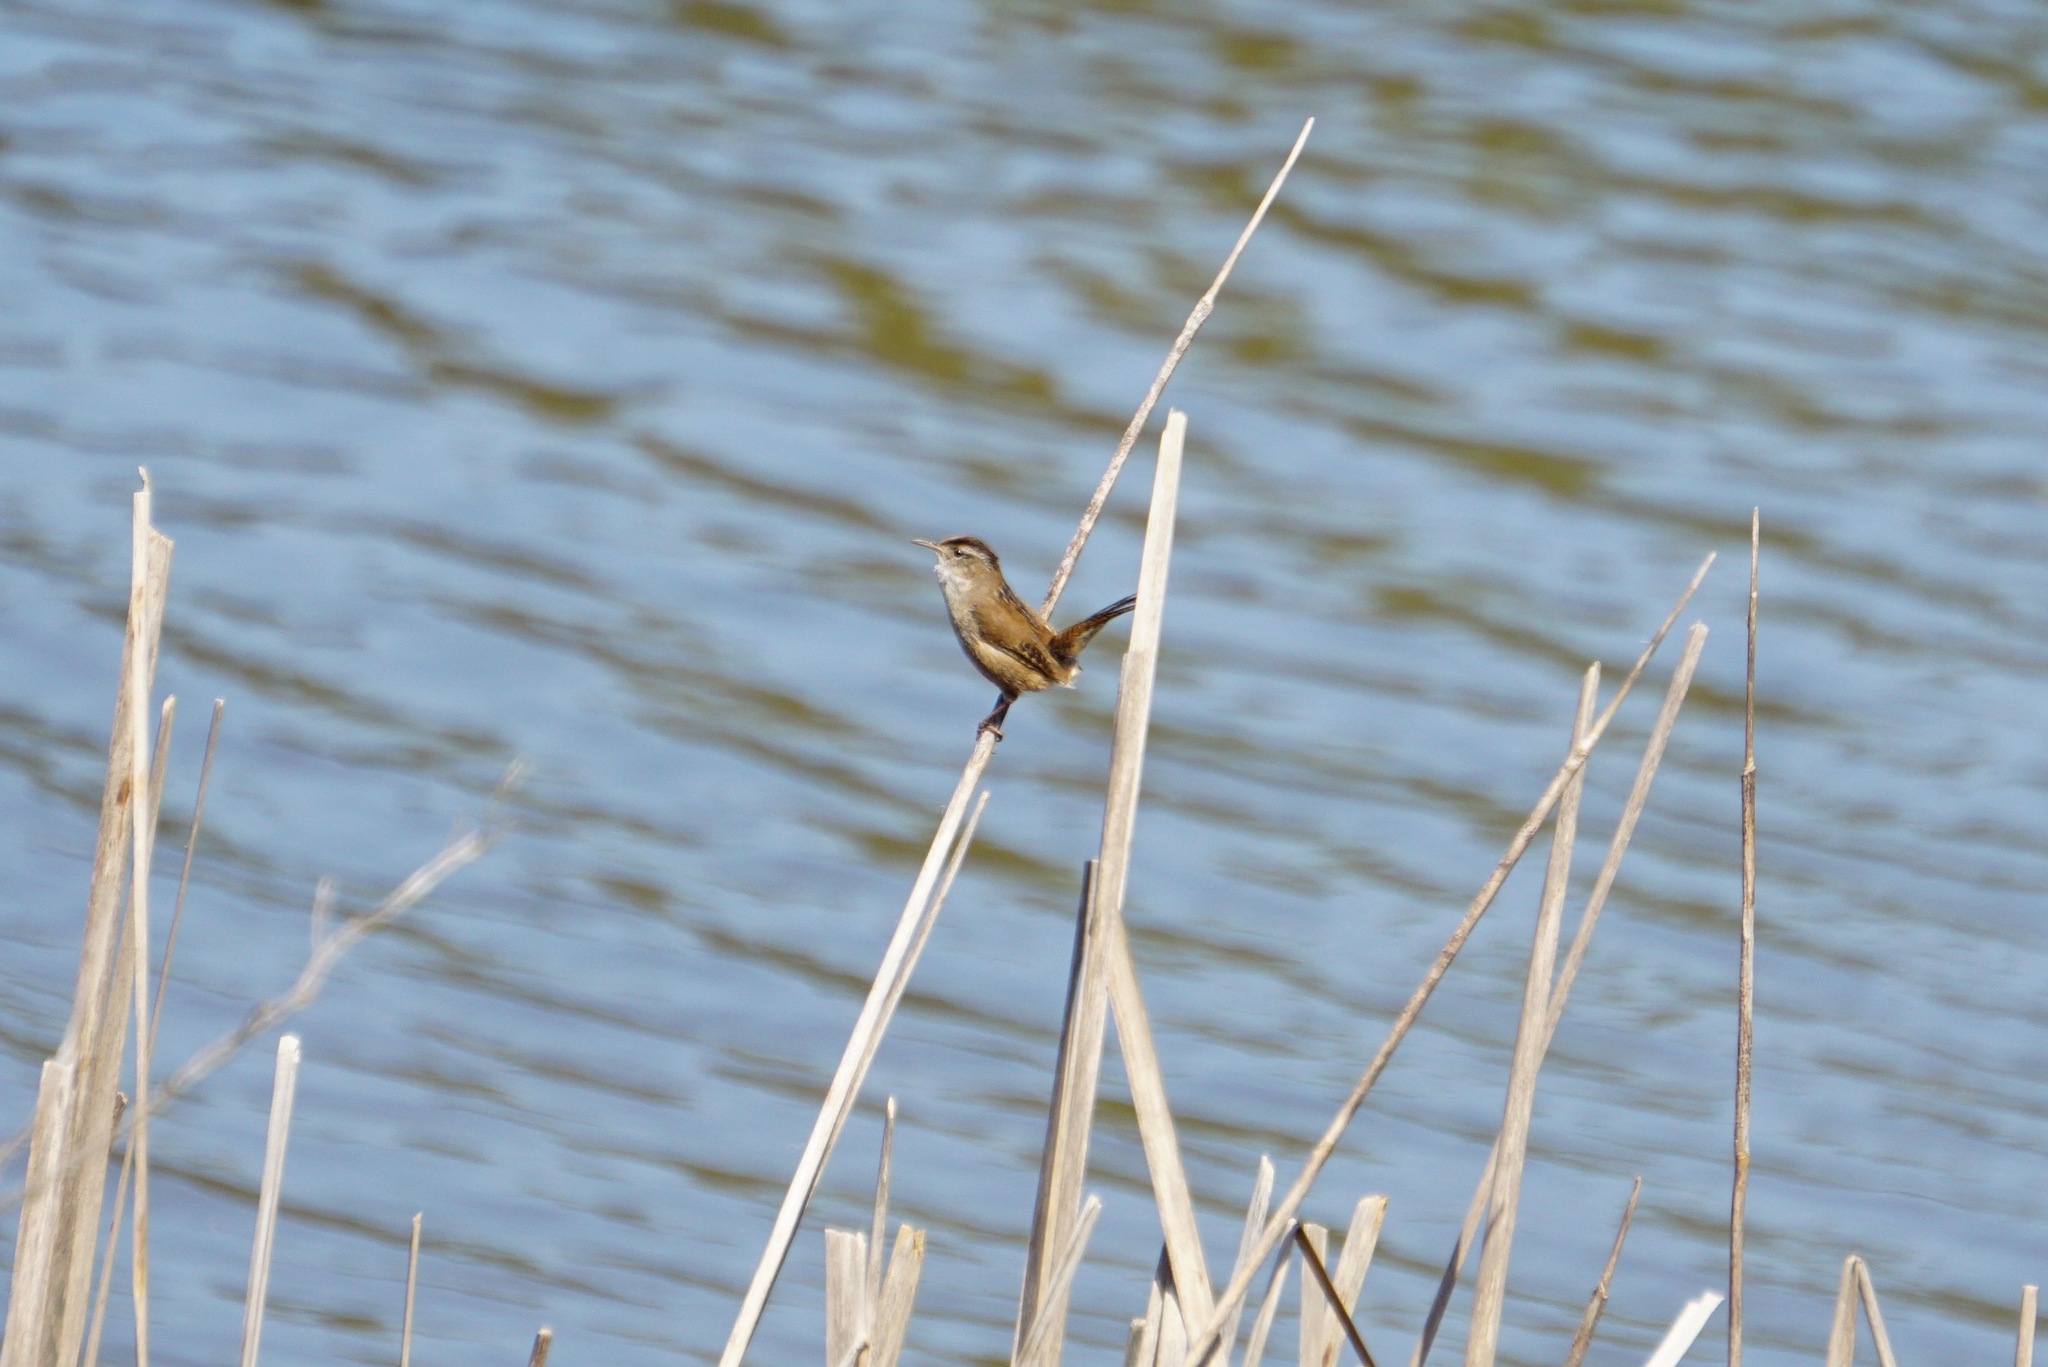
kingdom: Animalia
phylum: Chordata
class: Aves
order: Passeriformes
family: Troglodytidae
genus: Cistothorus
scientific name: Cistothorus palustris
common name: Marsh wren
